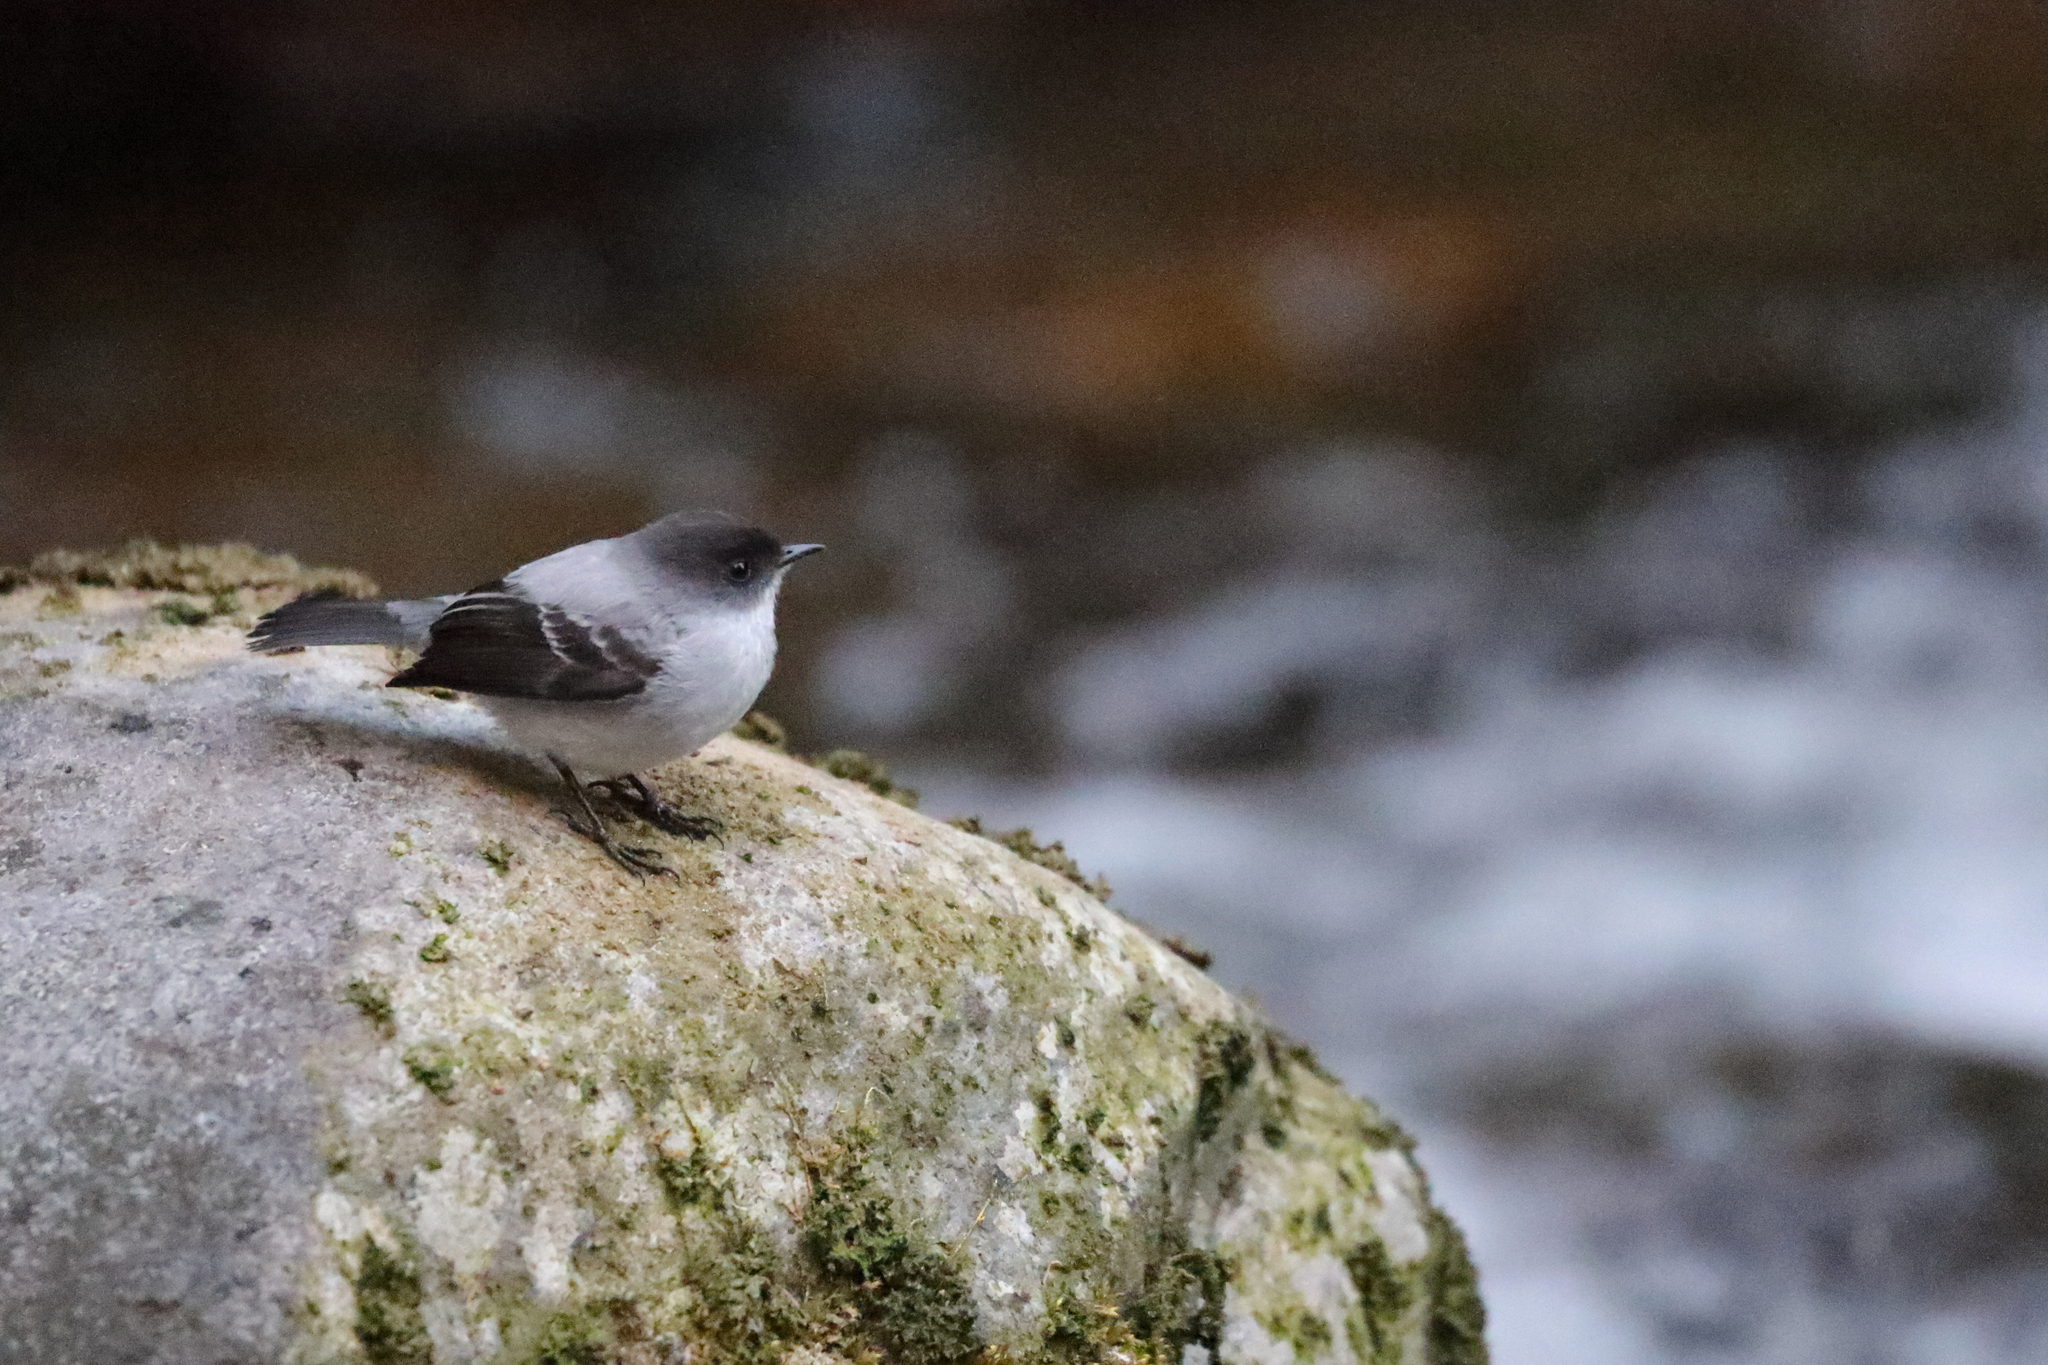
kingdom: Animalia
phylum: Chordata
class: Aves
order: Passeriformes
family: Tyrannidae
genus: Serpophaga
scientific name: Serpophaga cinerea
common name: Torrent tyrannulet
